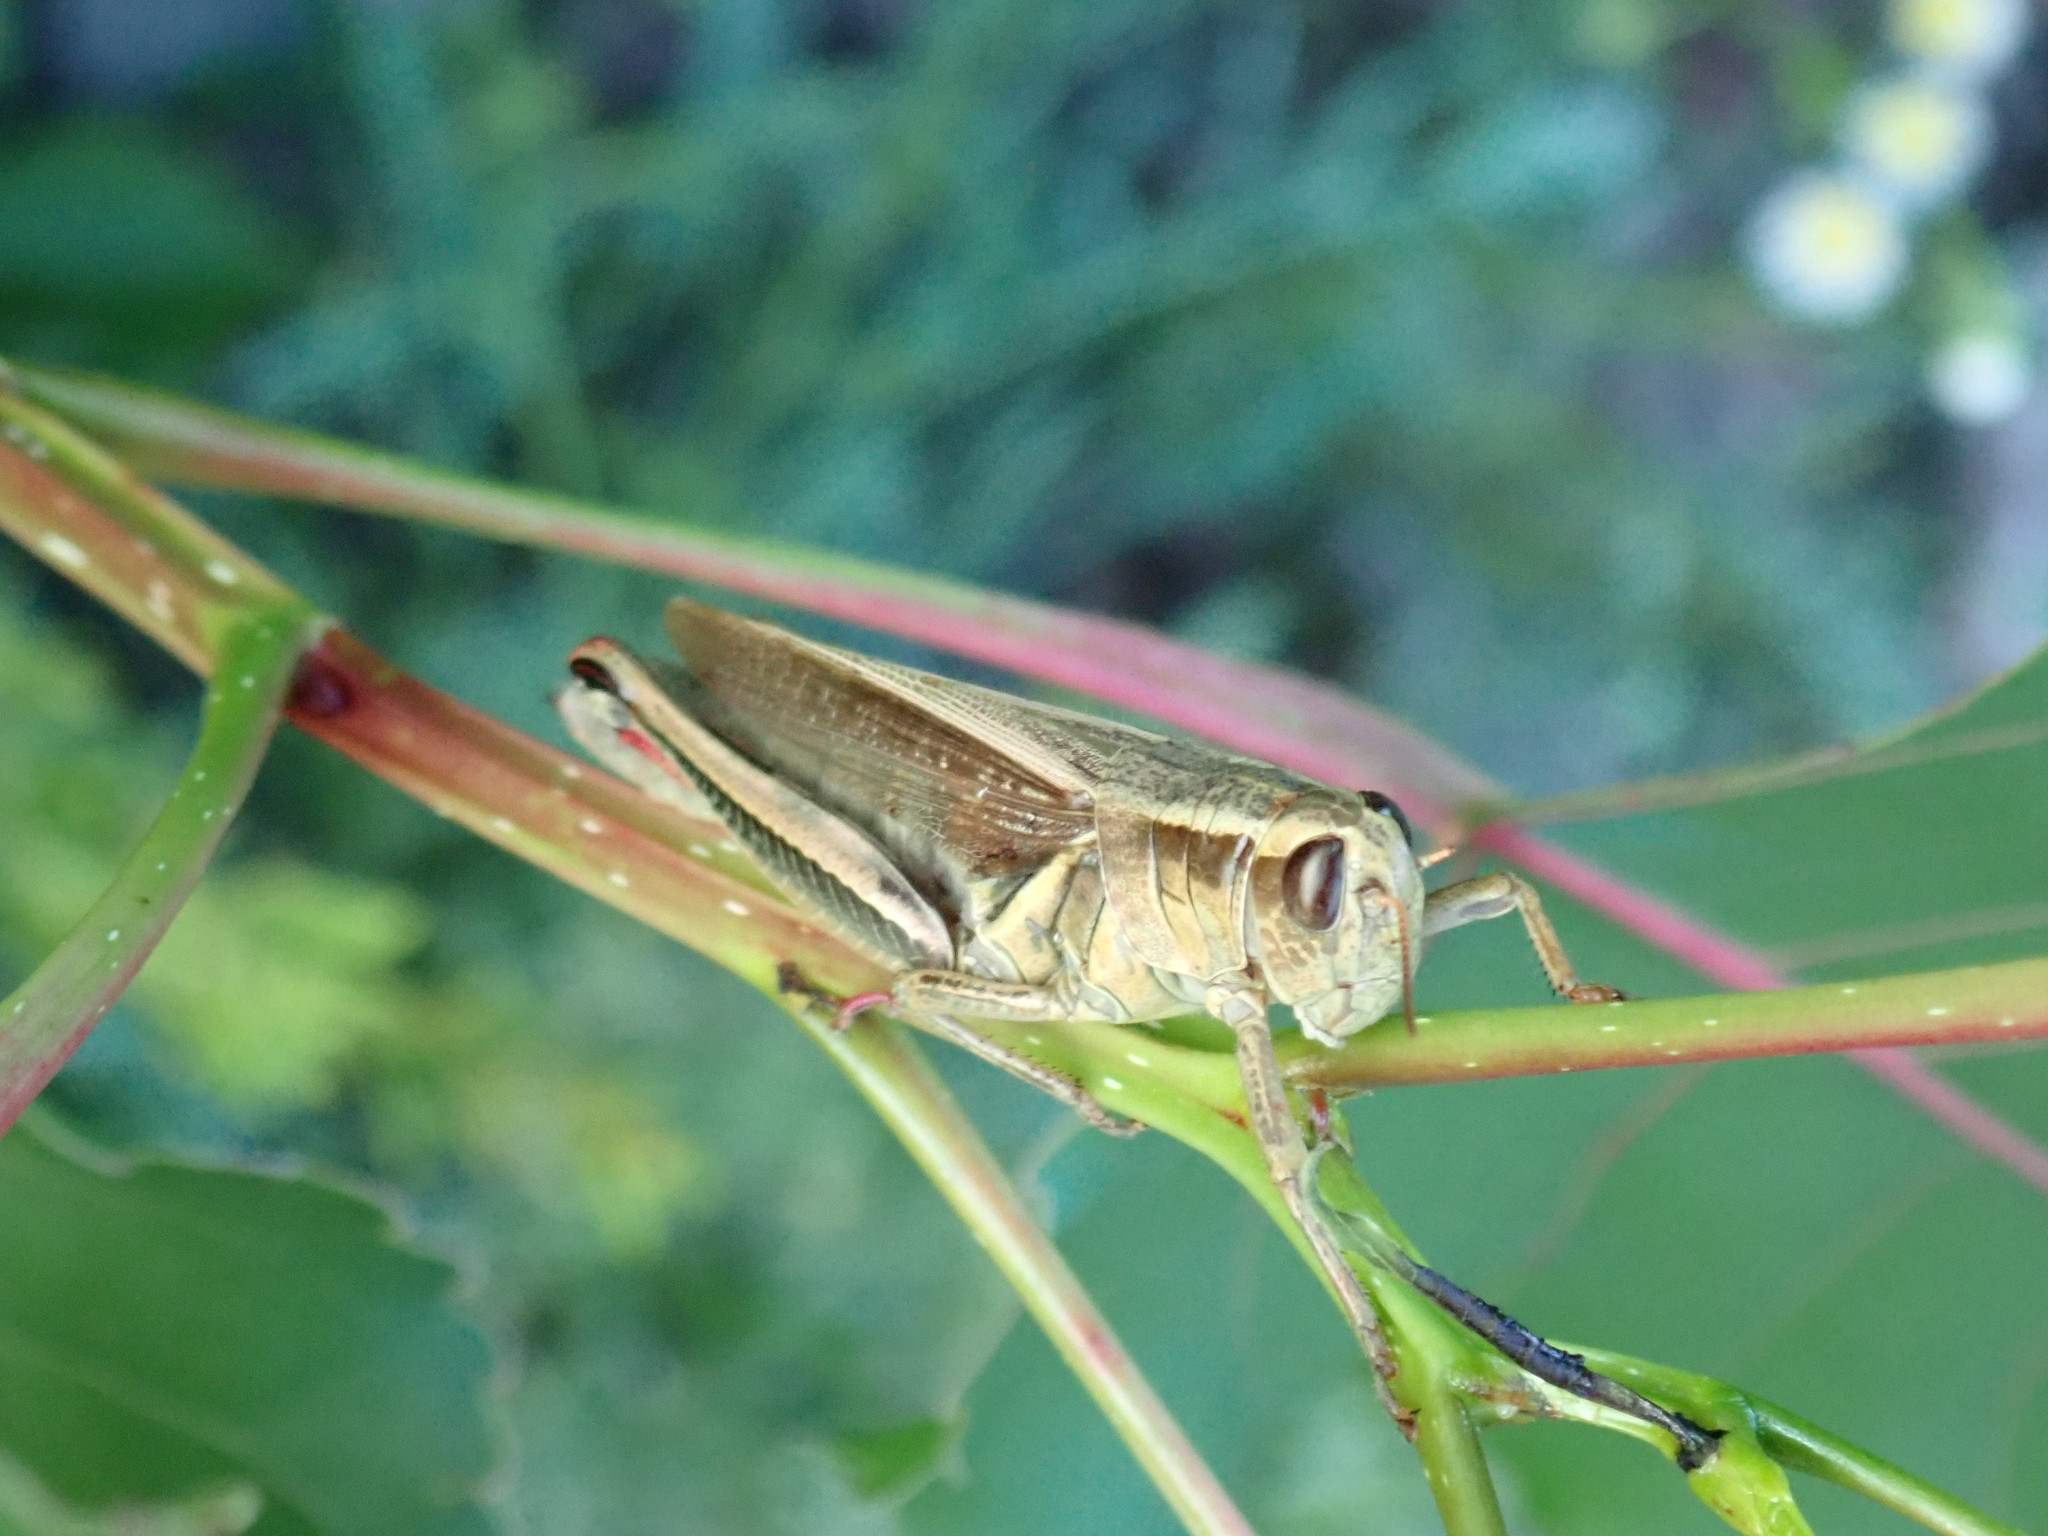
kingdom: Animalia
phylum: Arthropoda
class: Insecta
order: Orthoptera
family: Acrididae
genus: Melanoplus
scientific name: Melanoplus bivittatus
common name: Two-striped grasshopper
